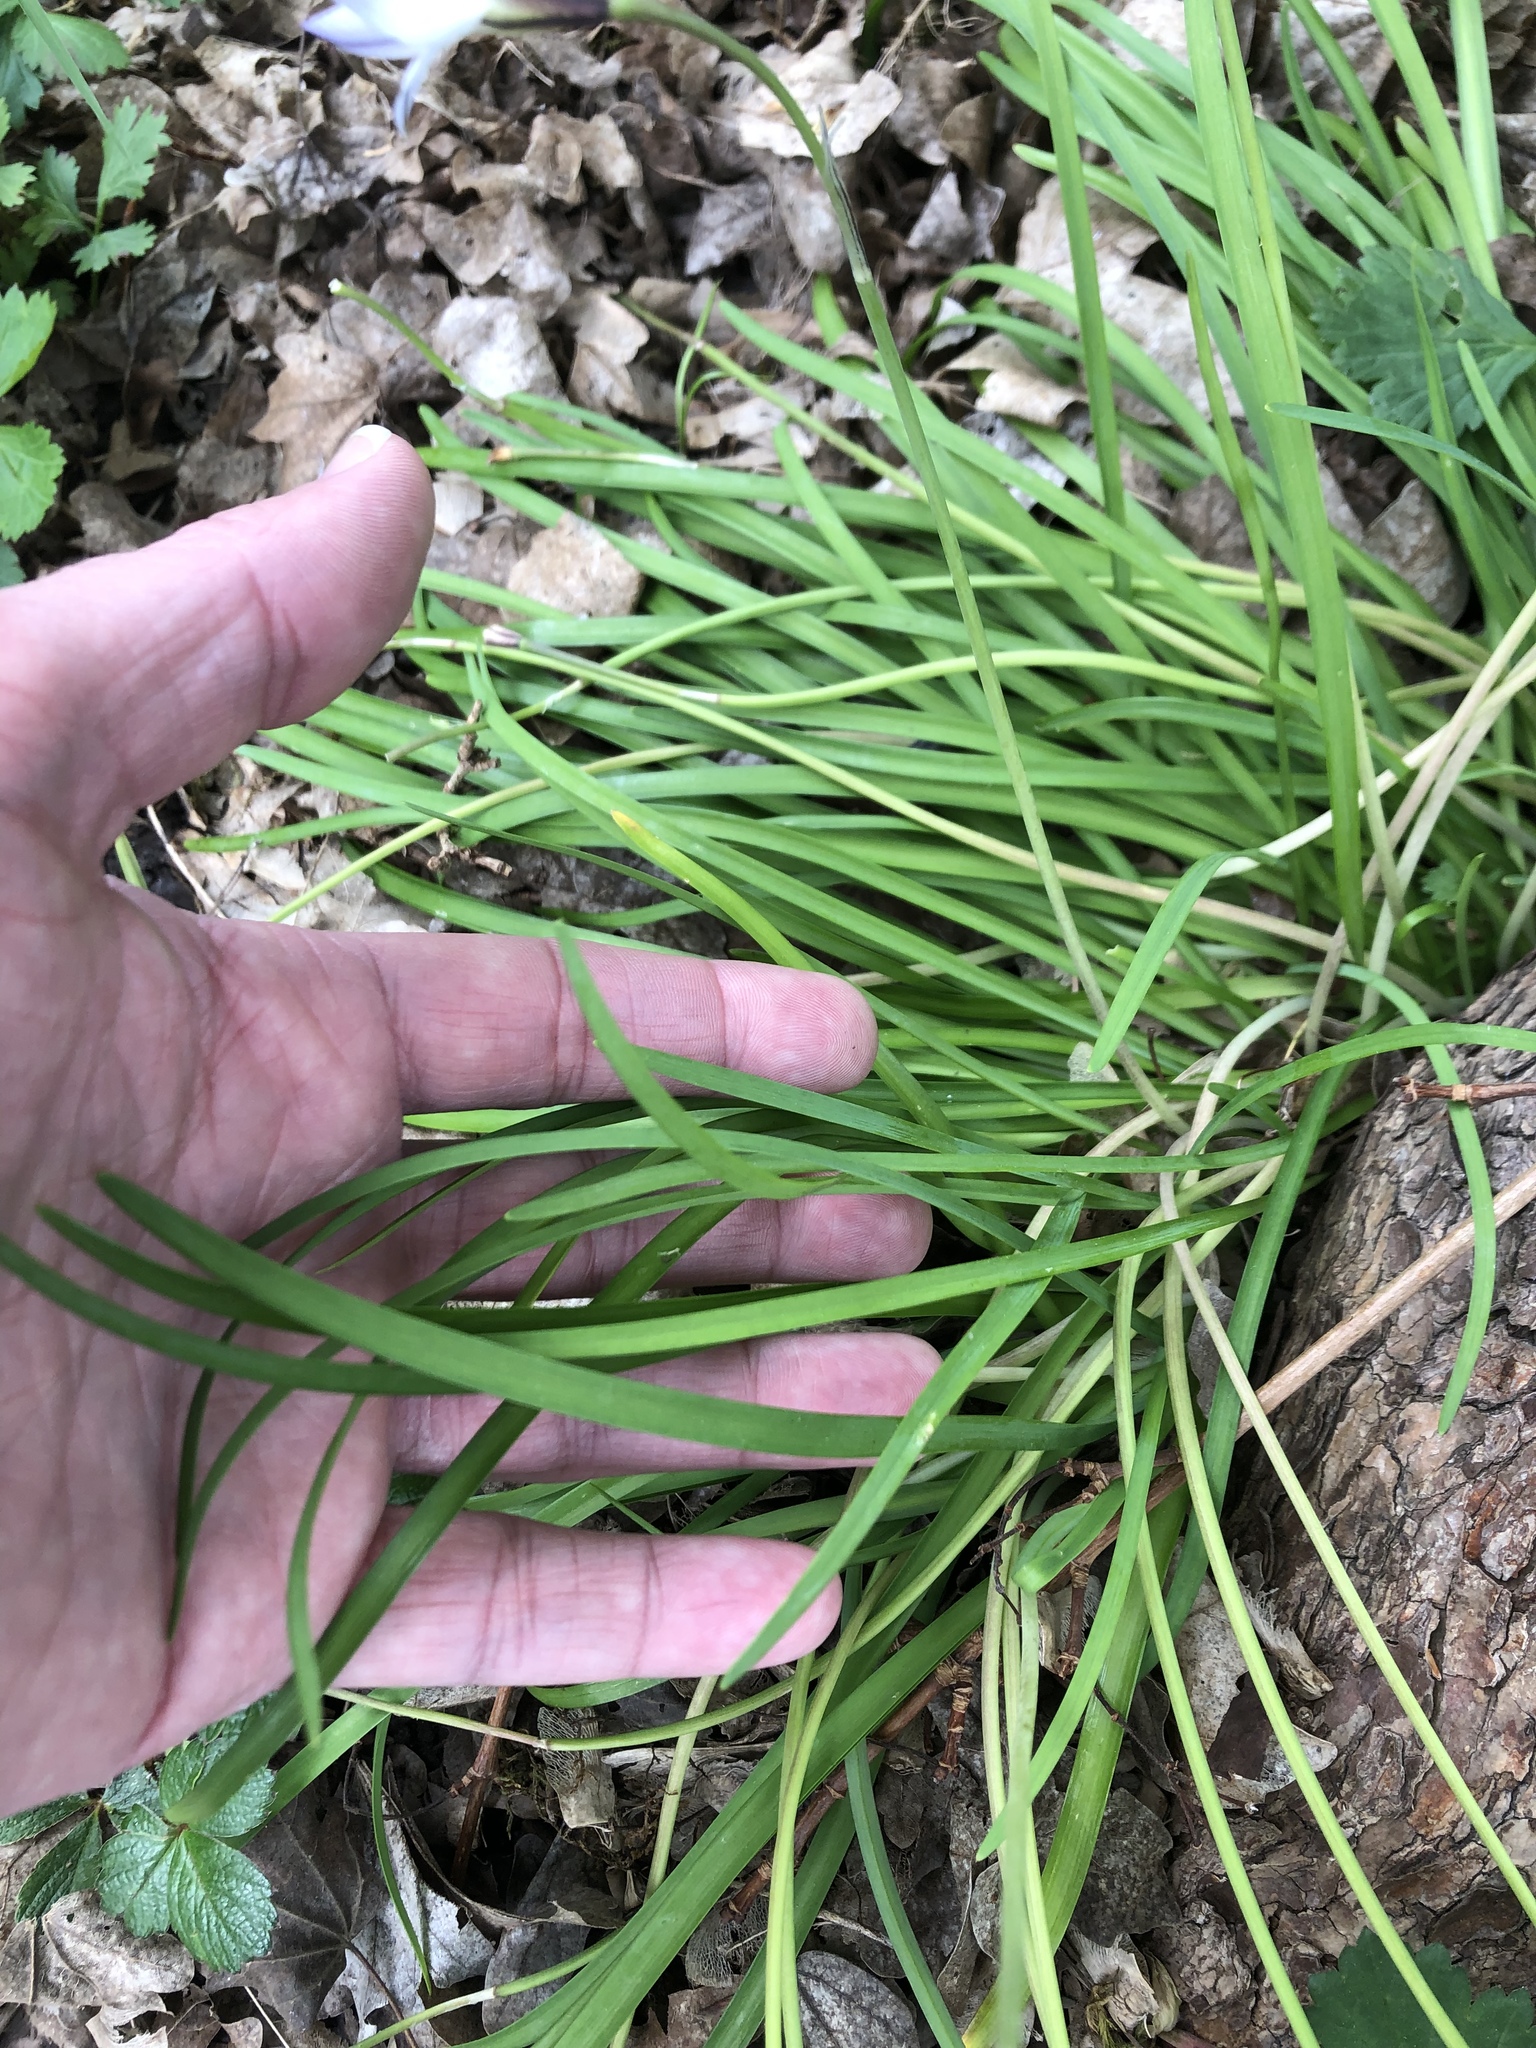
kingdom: Plantae
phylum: Tracheophyta
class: Liliopsida
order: Asparagales
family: Amaryllidaceae
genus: Ipheion
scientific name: Ipheion uniflorum
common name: Spring starflower
